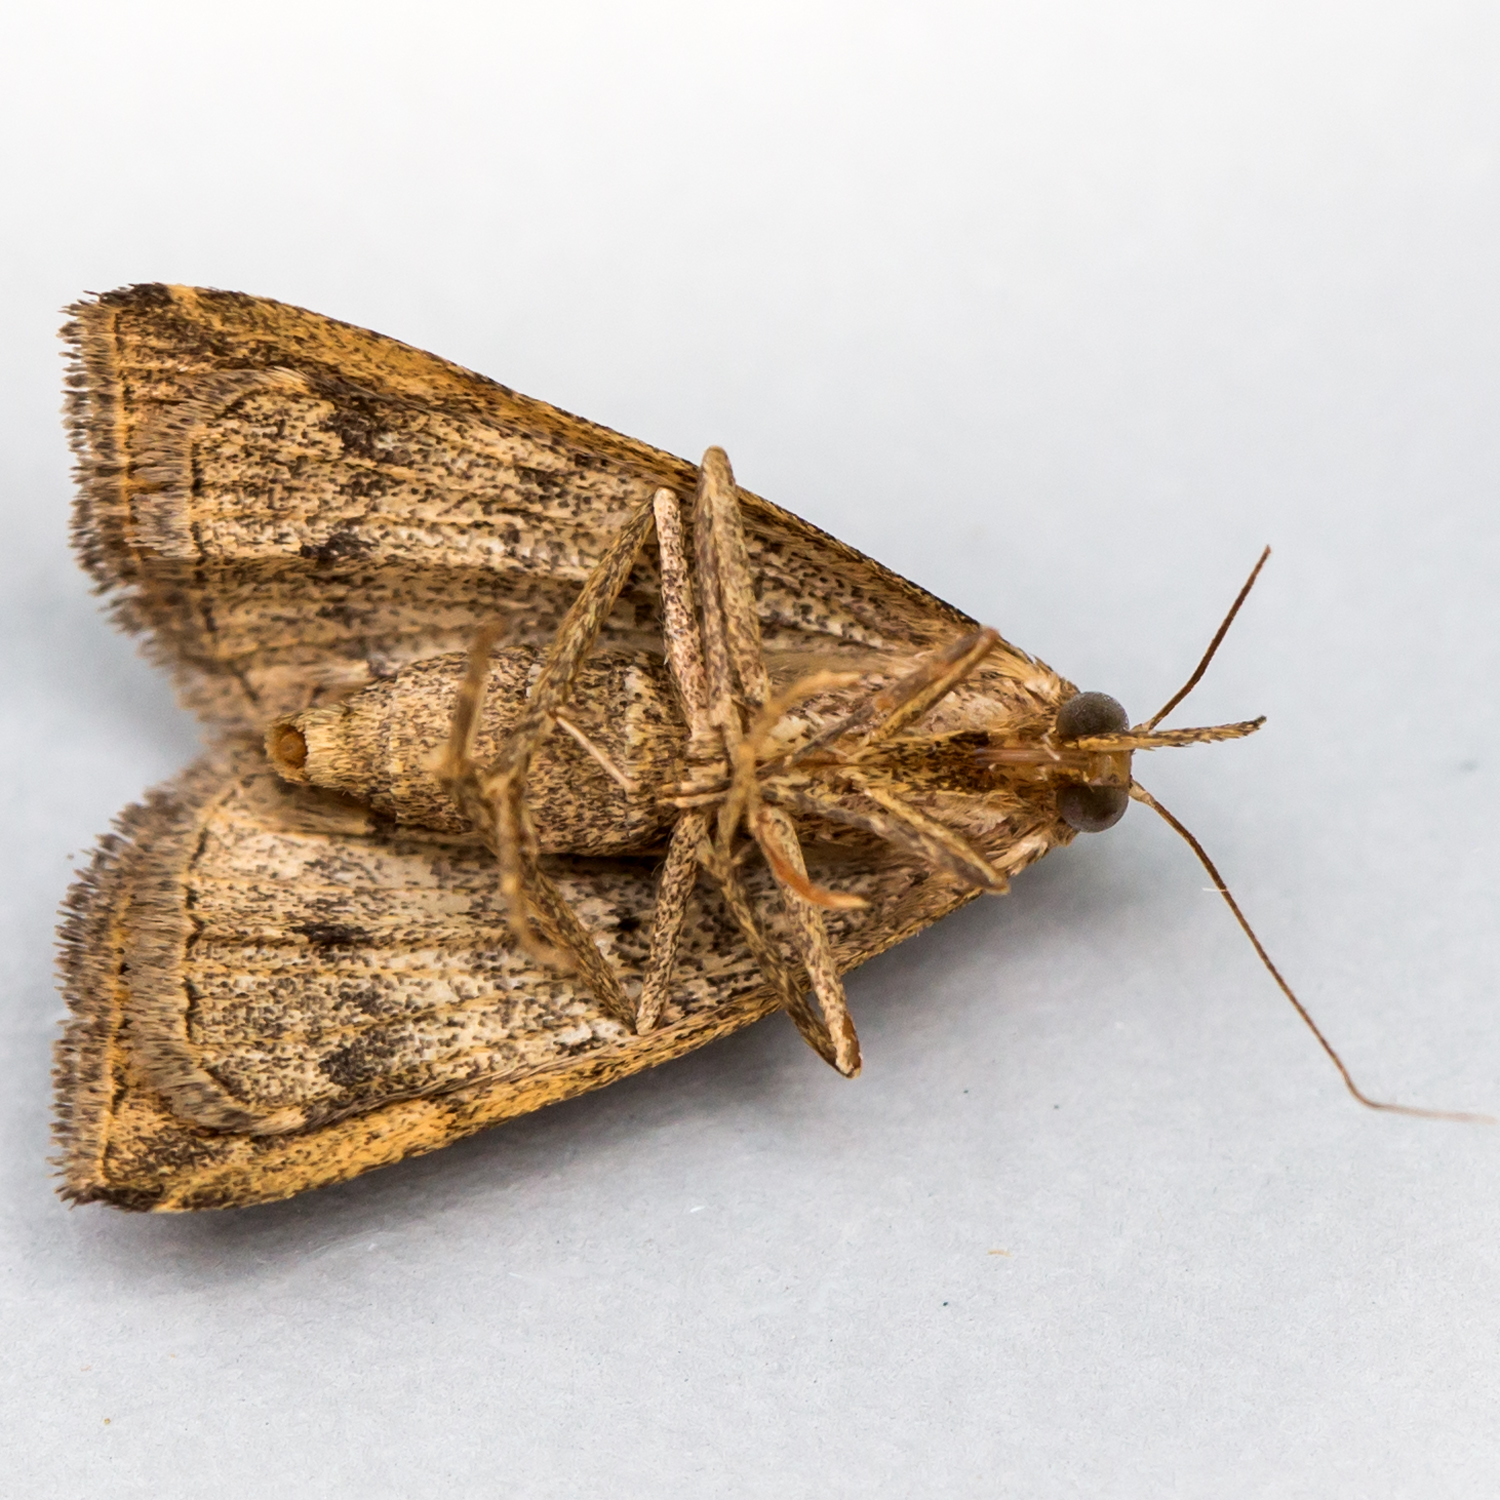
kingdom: Animalia
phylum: Arthropoda
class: Insecta
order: Lepidoptera
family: Erebidae
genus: Phalaenostola
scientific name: Phalaenostola eumelusalis
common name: Dark phalaenostola moth
